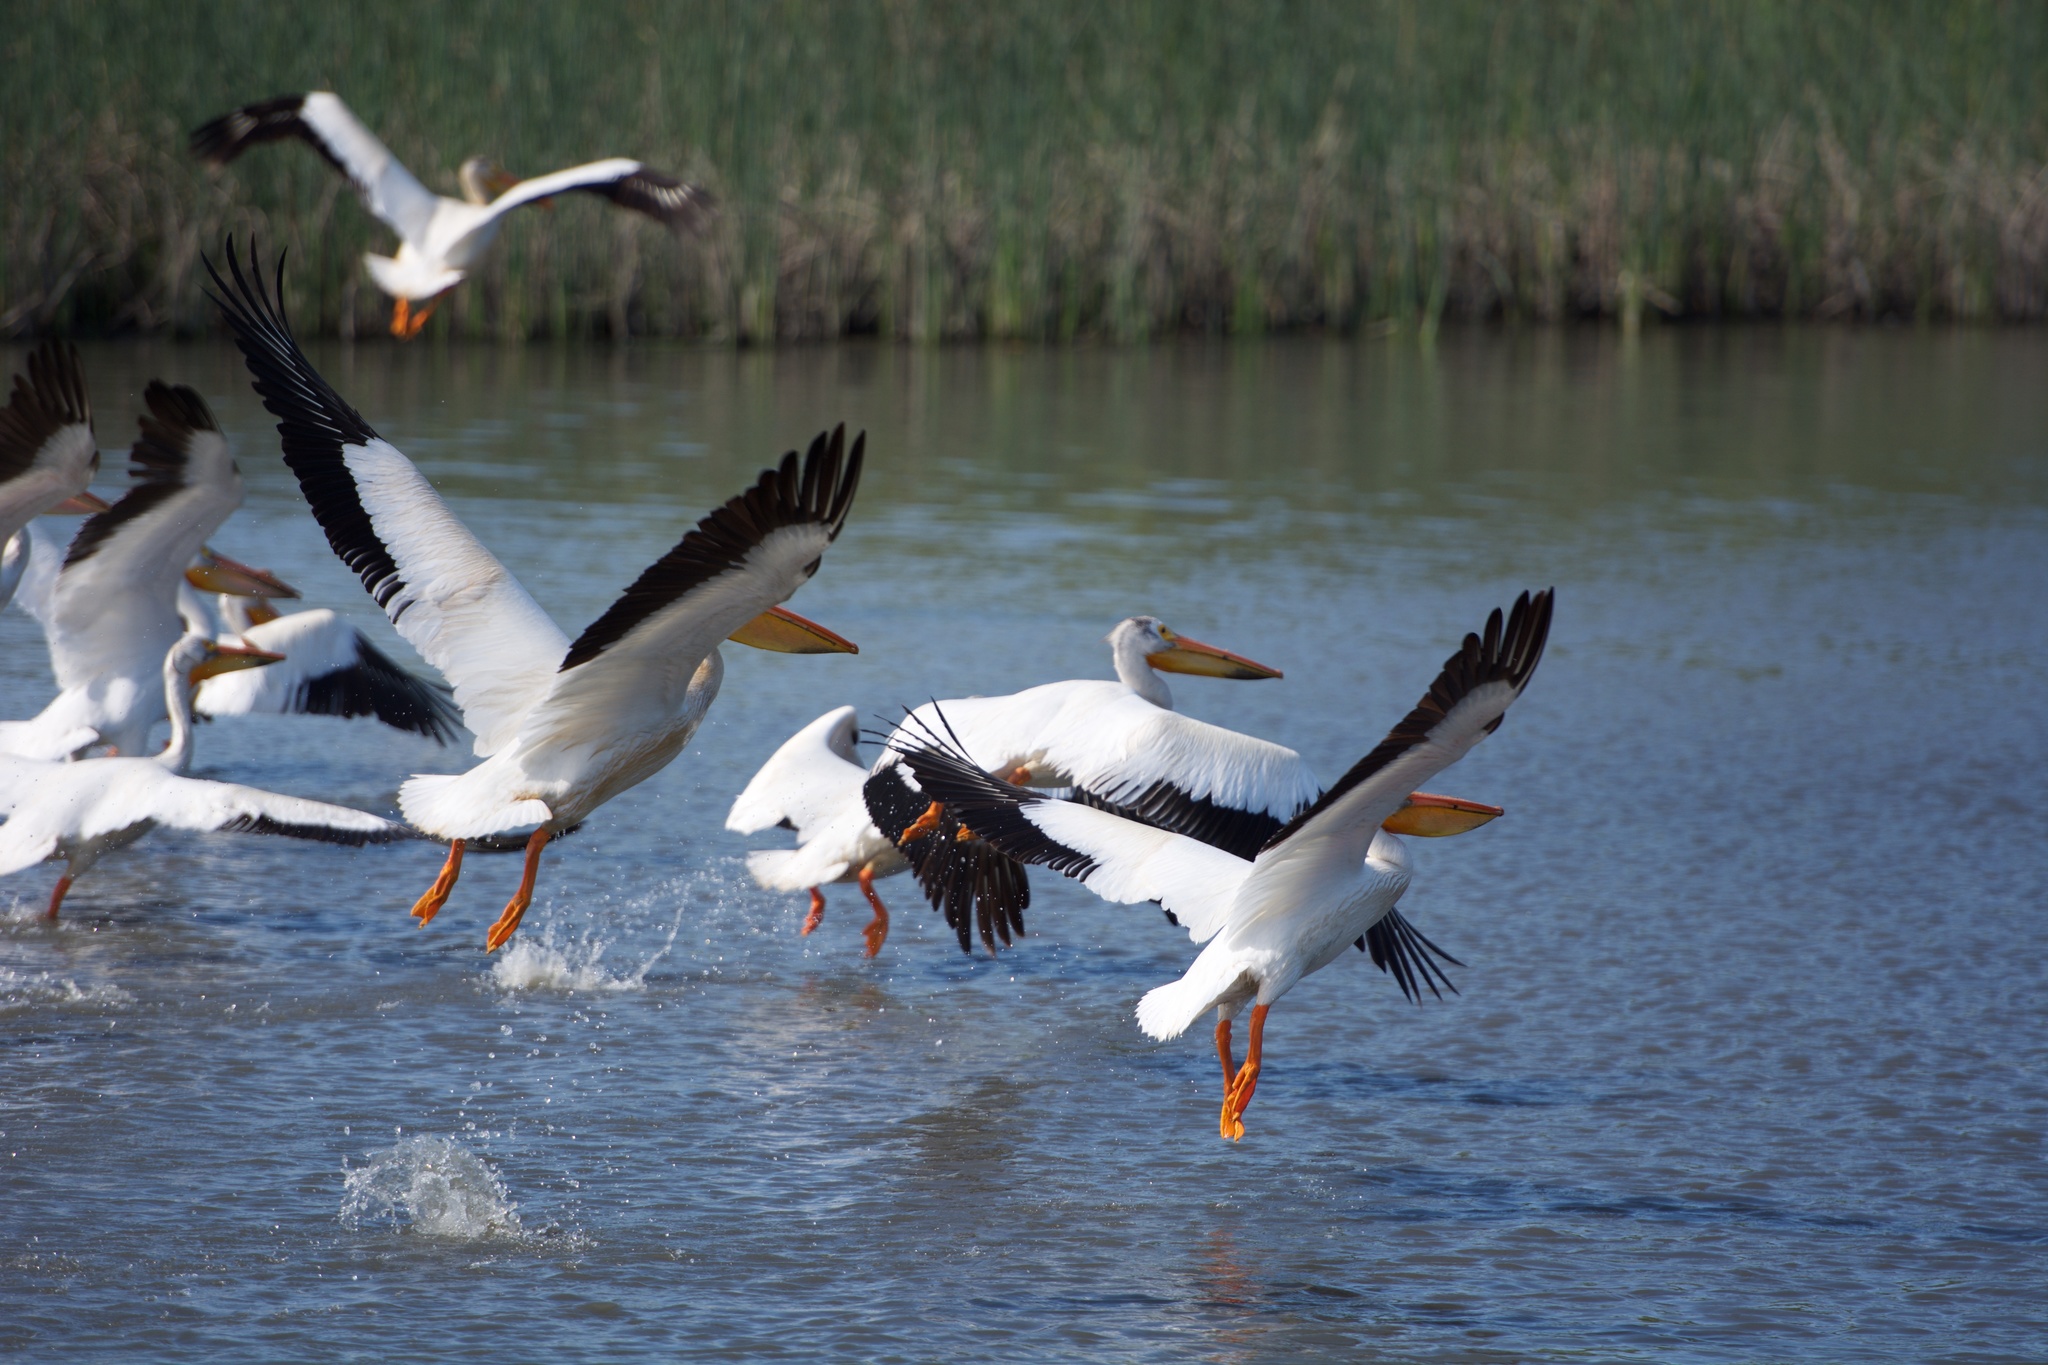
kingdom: Animalia
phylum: Chordata
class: Aves
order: Pelecaniformes
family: Pelecanidae
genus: Pelecanus
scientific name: Pelecanus erythrorhynchos
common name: American white pelican
